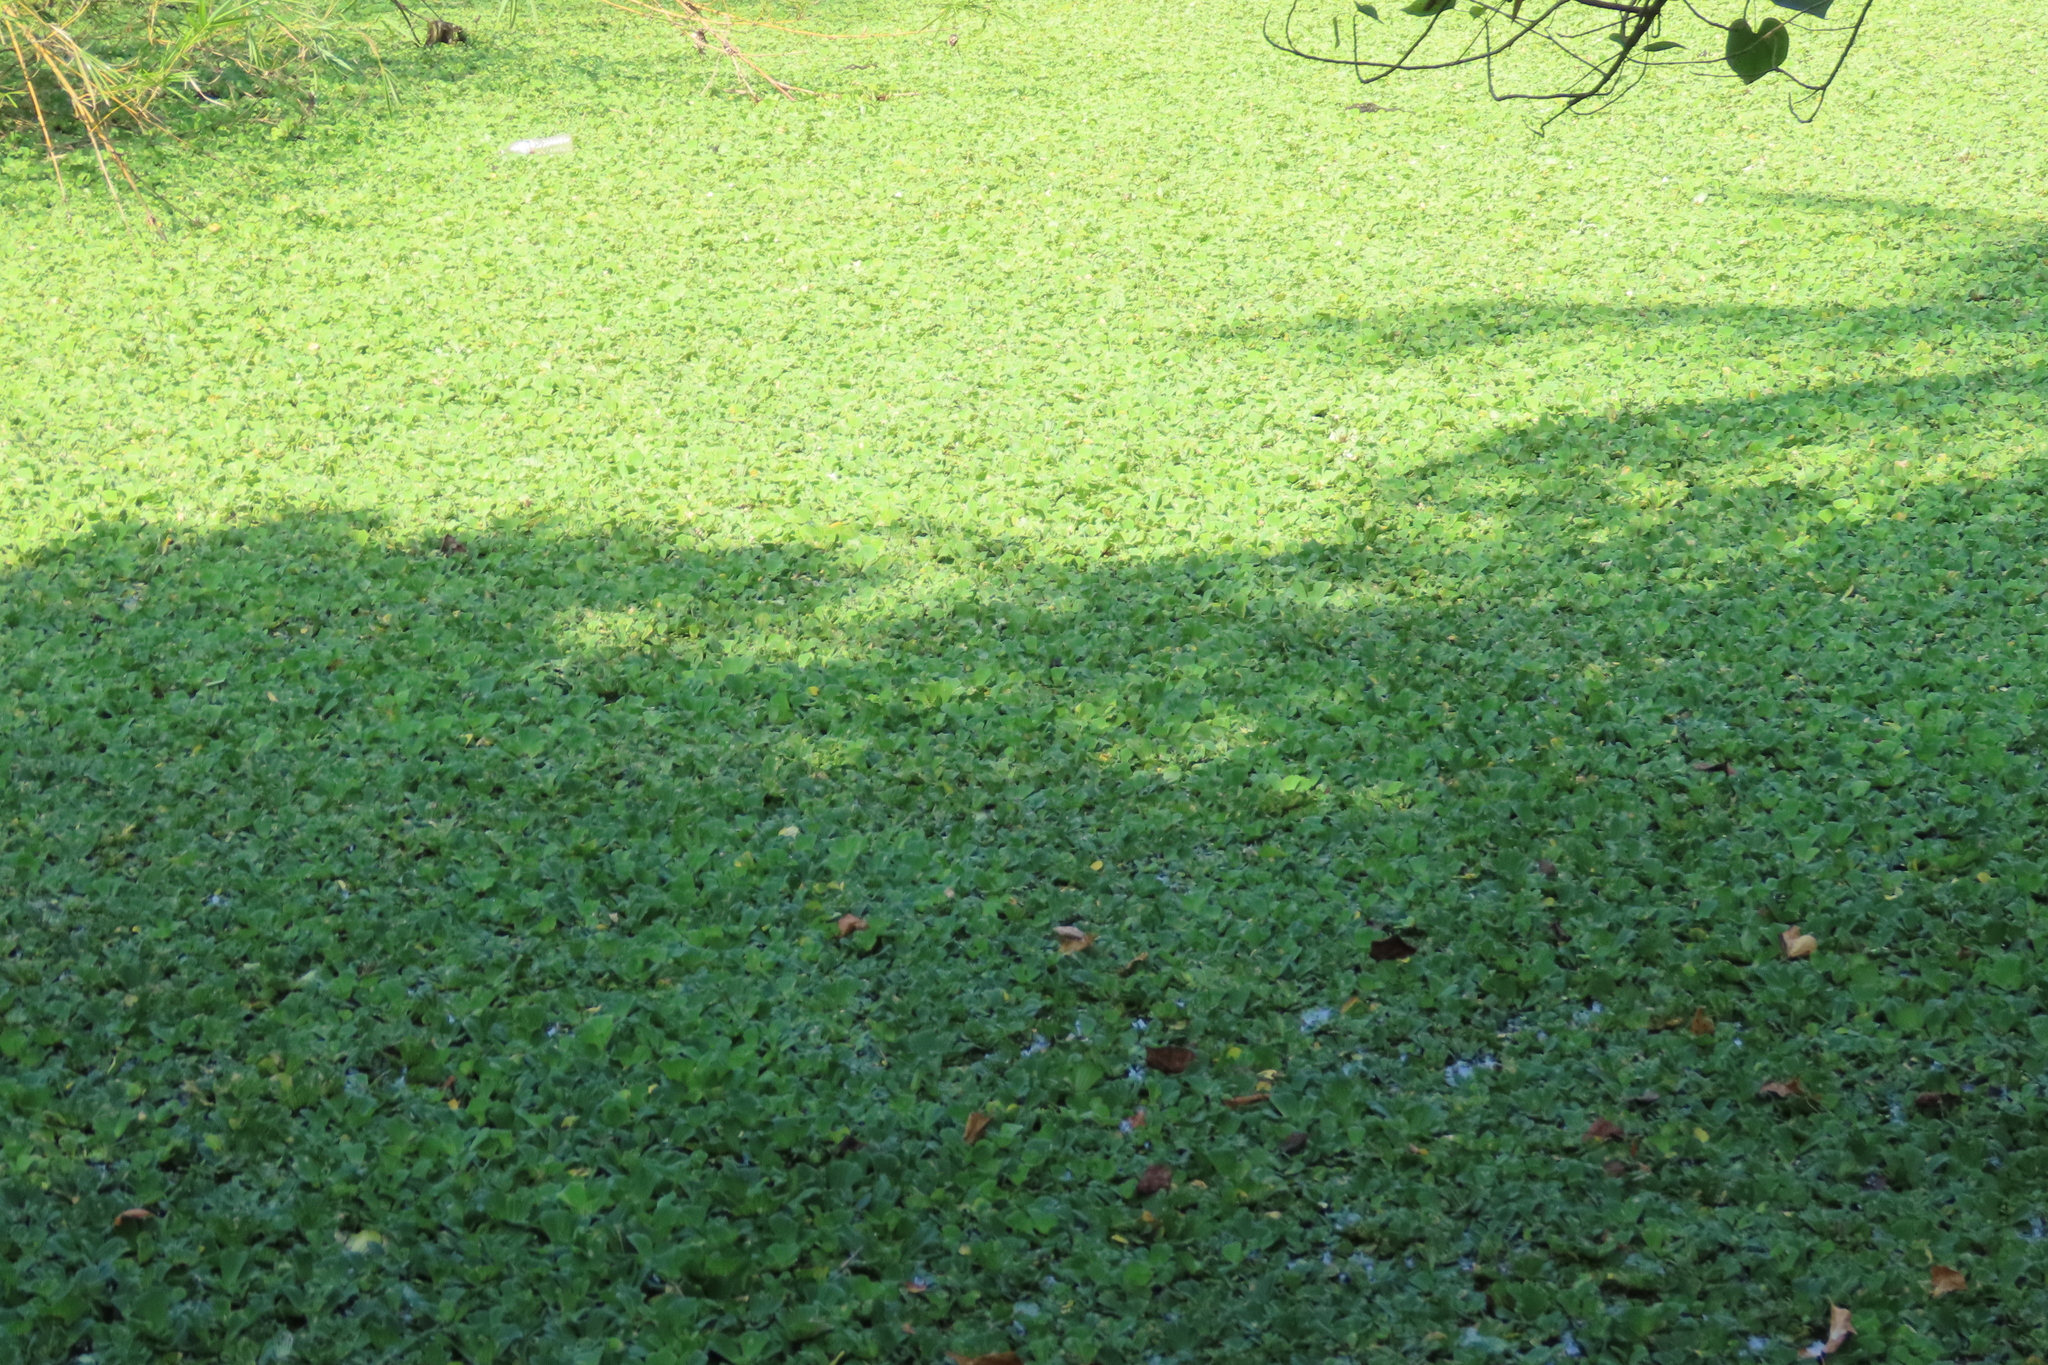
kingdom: Plantae
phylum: Tracheophyta
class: Liliopsida
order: Alismatales
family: Araceae
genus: Pistia
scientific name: Pistia stratiotes
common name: Water lettuce
